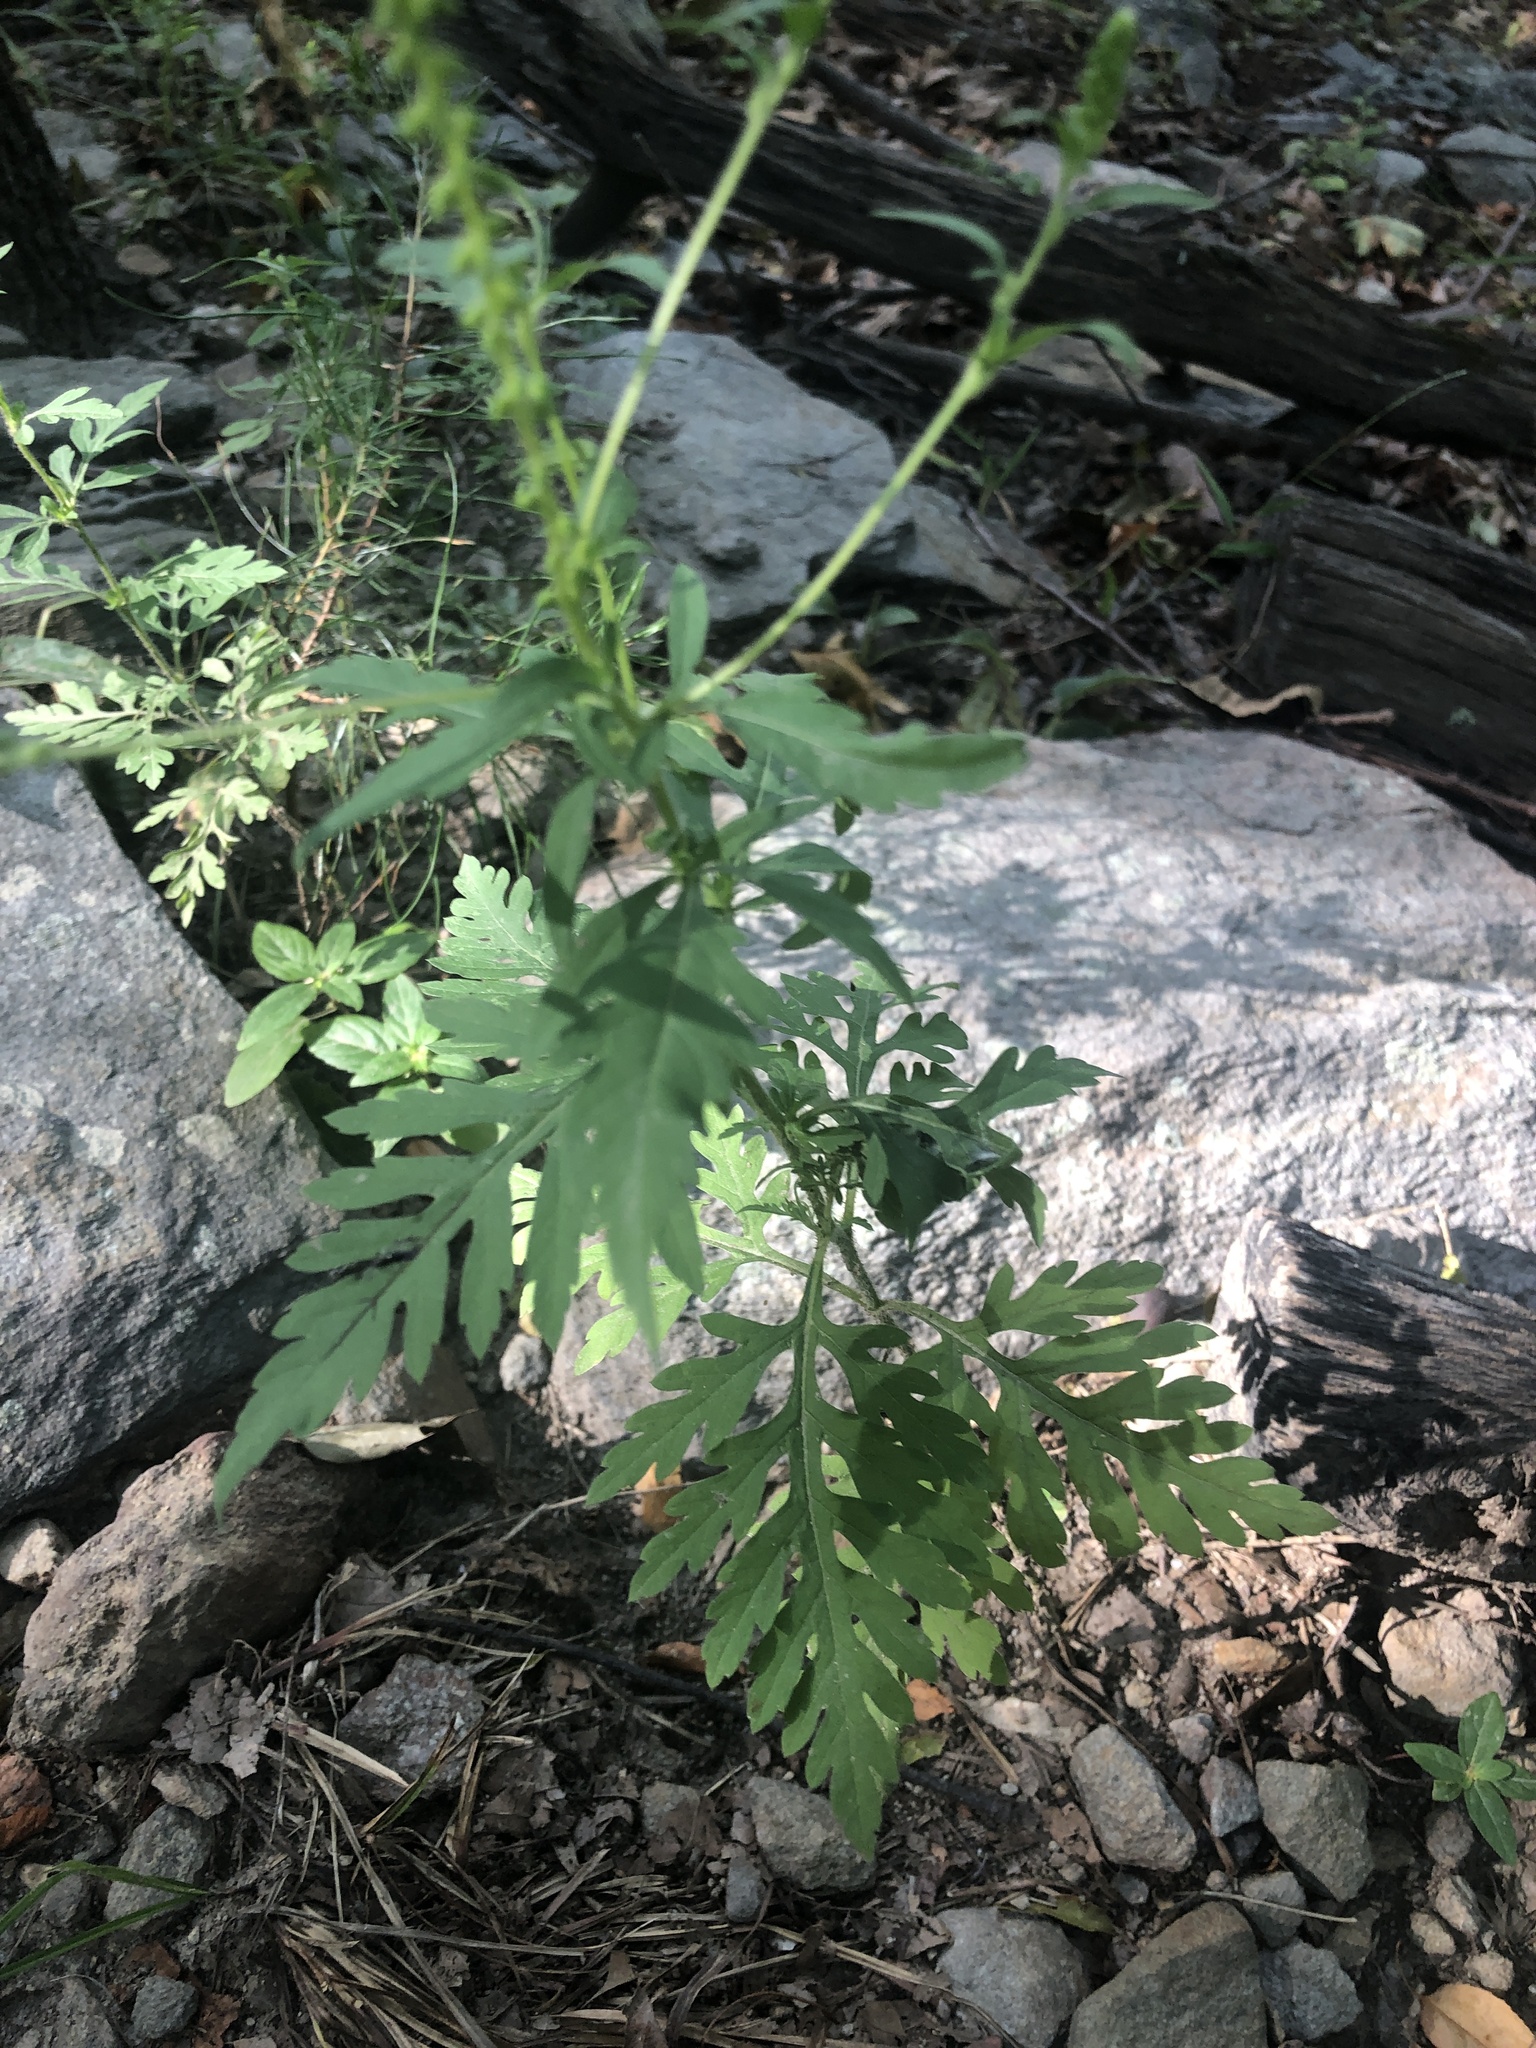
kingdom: Plantae
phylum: Tracheophyta
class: Magnoliopsida
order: Asterales
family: Asteraceae
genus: Ambrosia
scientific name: Ambrosia artemisiifolia
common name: Annual ragweed
